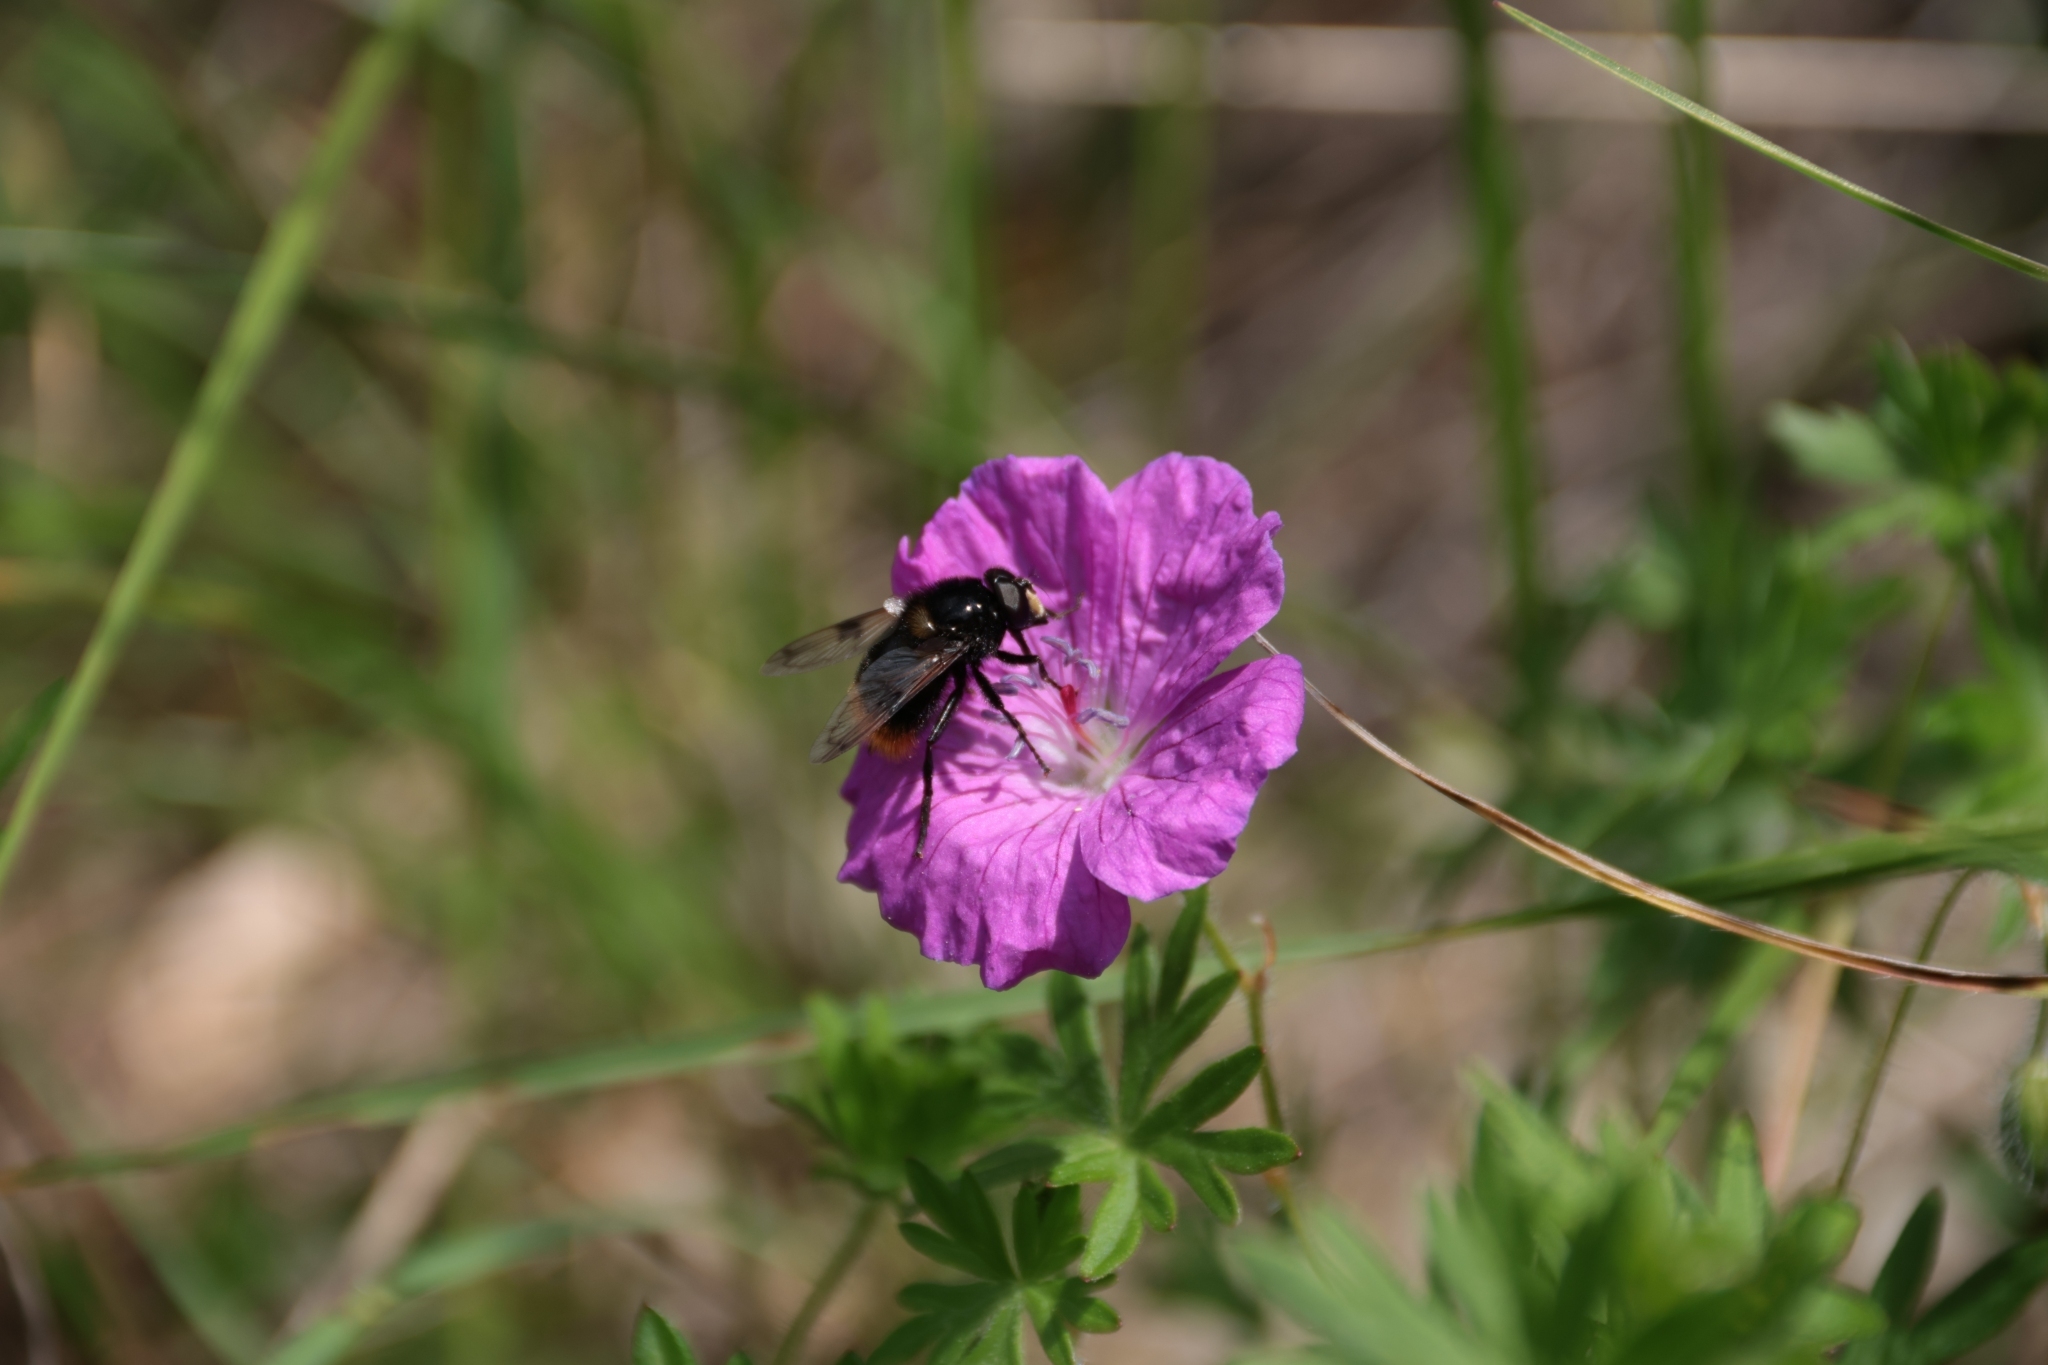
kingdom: Animalia
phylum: Arthropoda
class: Insecta
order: Diptera
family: Syrphidae
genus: Volucella
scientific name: Volucella bombylans
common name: Bumble bee hover fly
